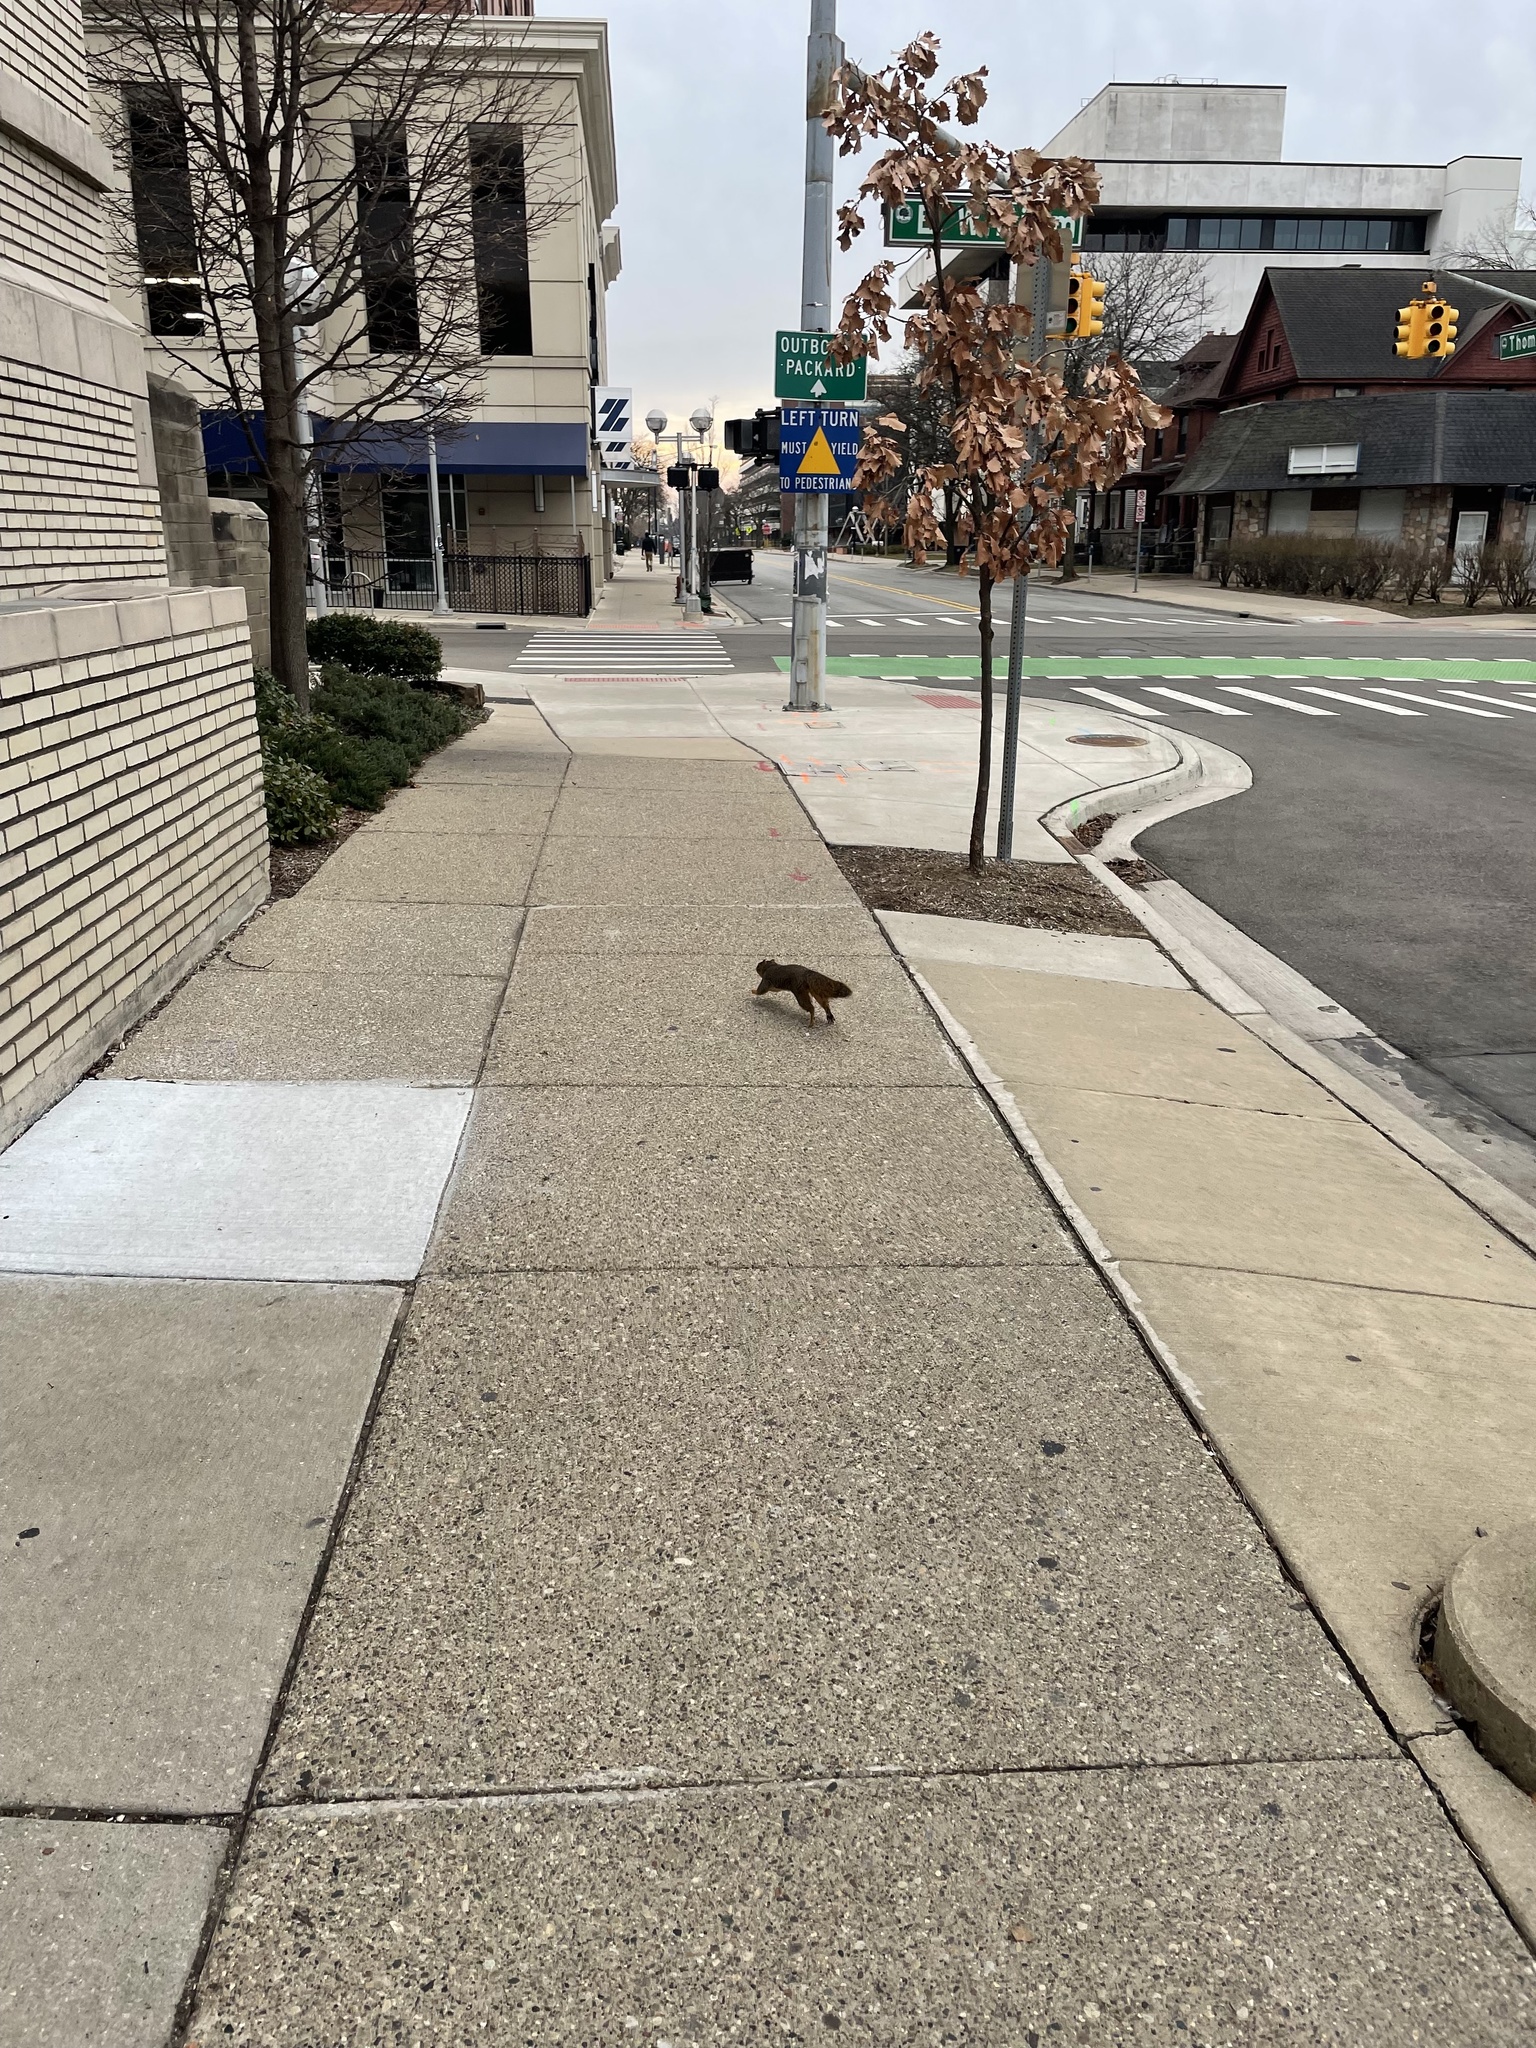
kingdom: Animalia
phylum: Chordata
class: Mammalia
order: Rodentia
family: Sciuridae
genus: Sciurus
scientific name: Sciurus niger
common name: Fox squirrel
